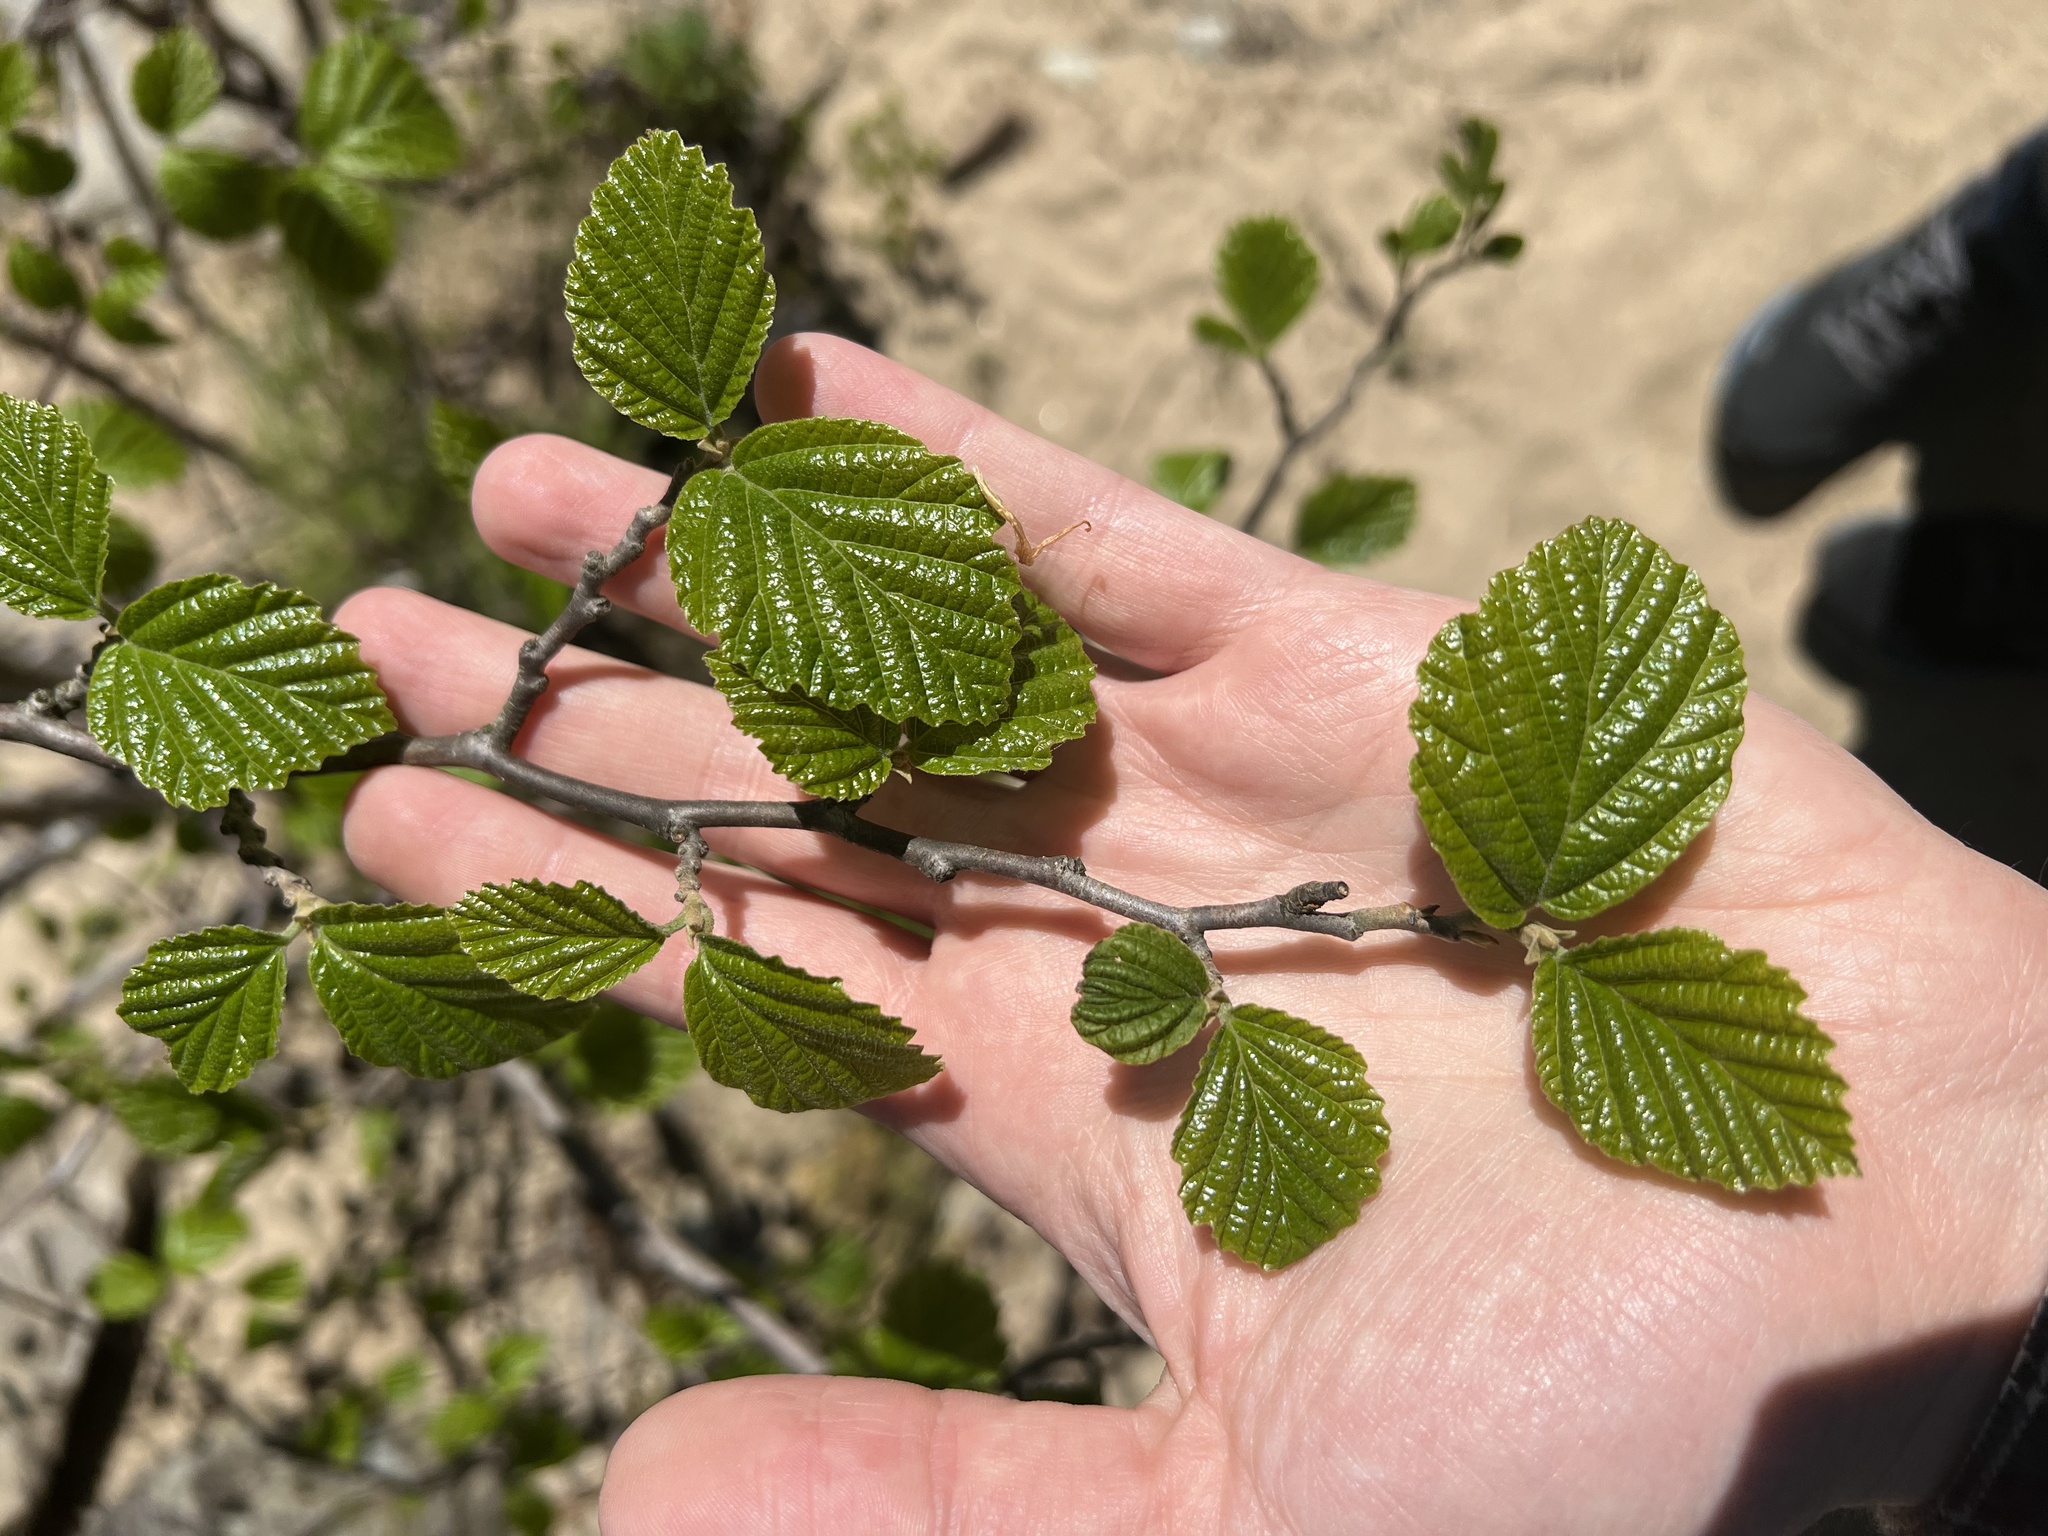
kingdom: Plantae
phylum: Tracheophyta
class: Magnoliopsida
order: Saxifragales
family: Hamamelidaceae
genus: Hamamelis
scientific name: Hamamelis virginiana
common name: Witch-hazel
